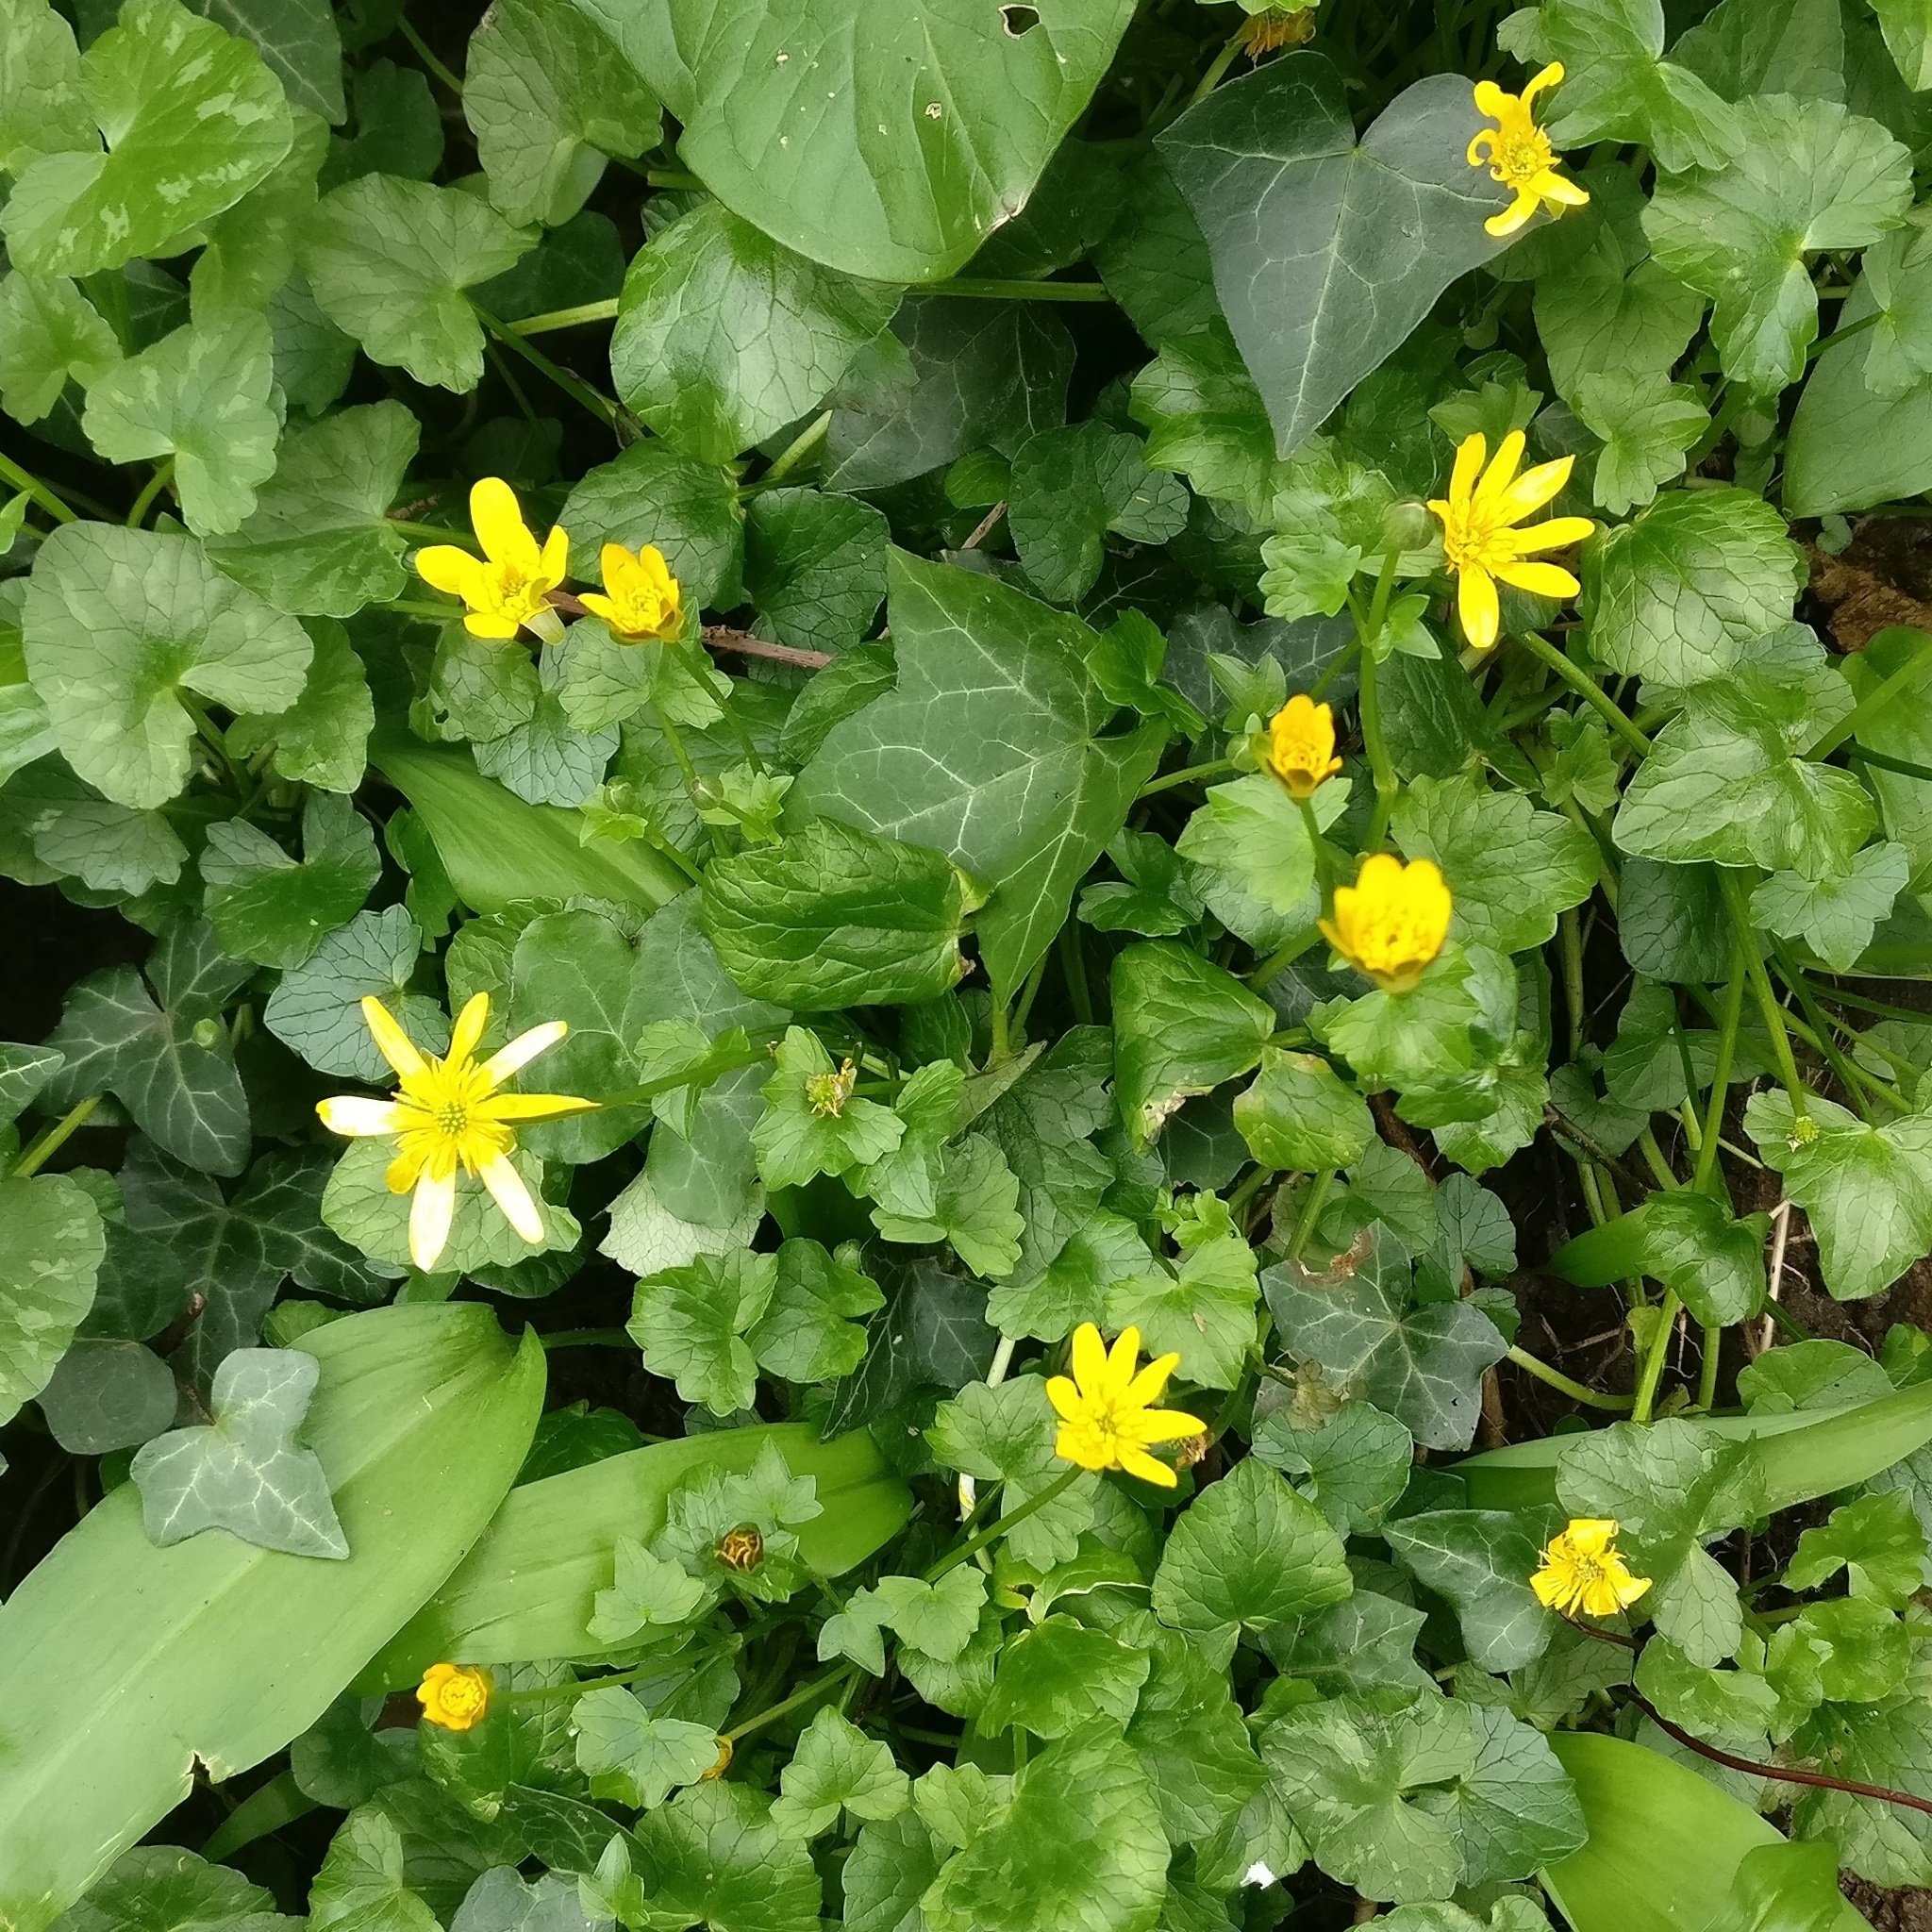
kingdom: Plantae
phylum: Tracheophyta
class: Magnoliopsida
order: Ranunculales
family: Ranunculaceae
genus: Ficaria
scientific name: Ficaria verna
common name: Lesser celandine
